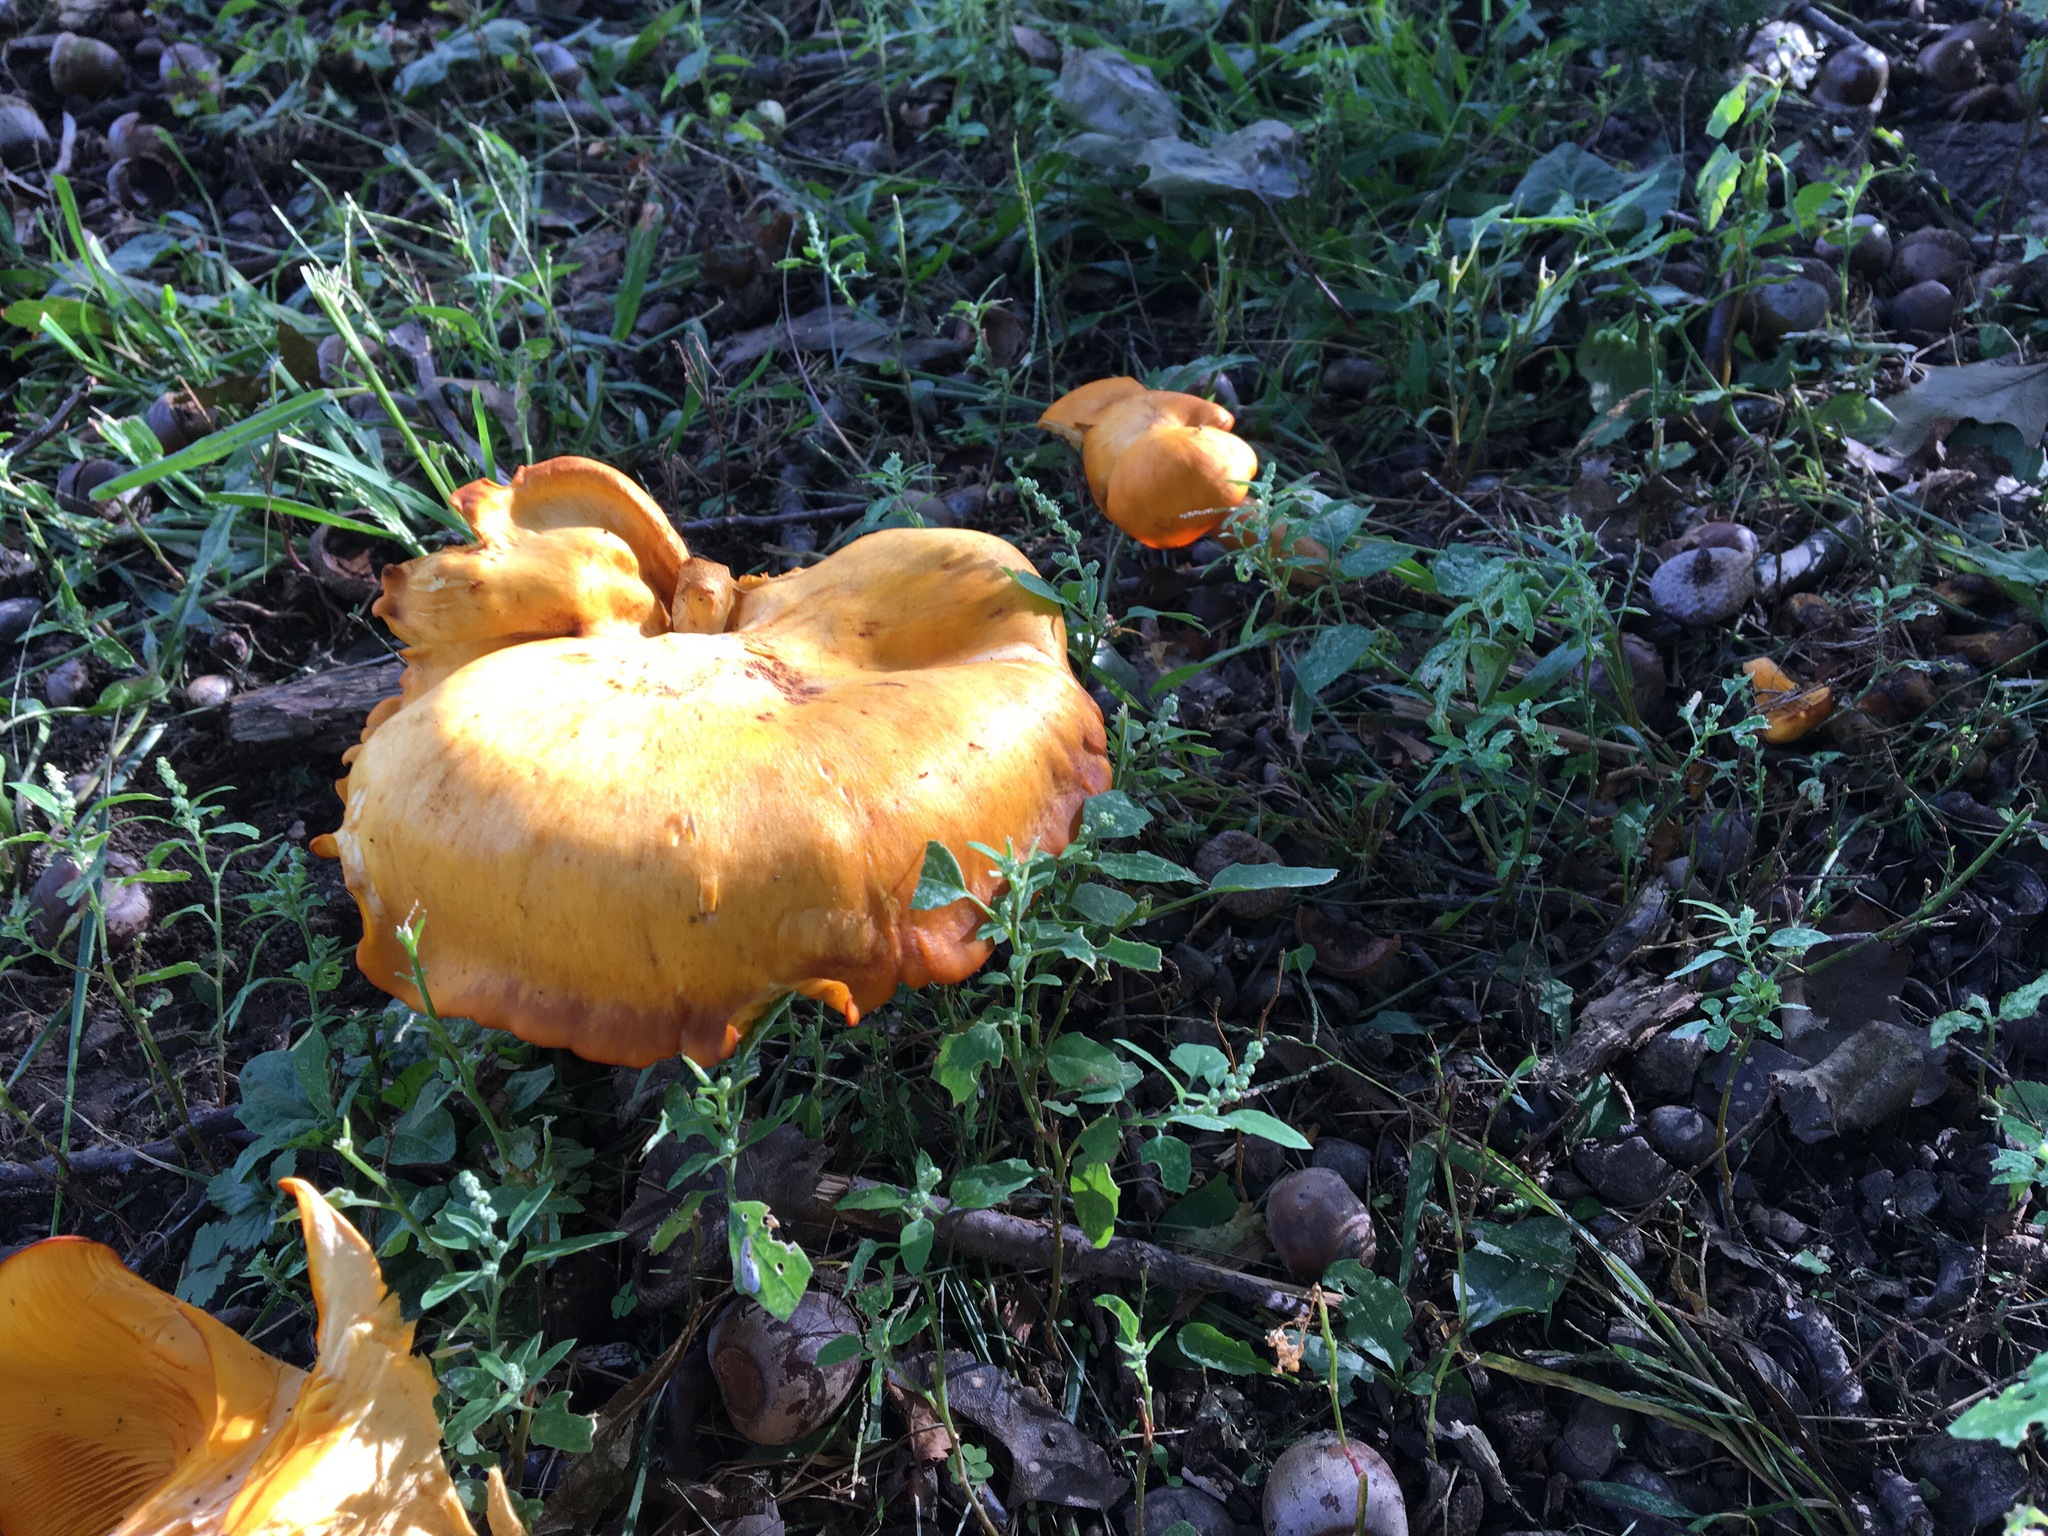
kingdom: Fungi
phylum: Basidiomycota
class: Agaricomycetes
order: Agaricales
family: Omphalotaceae
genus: Omphalotus
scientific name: Omphalotus illudens
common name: Jack o lantern
